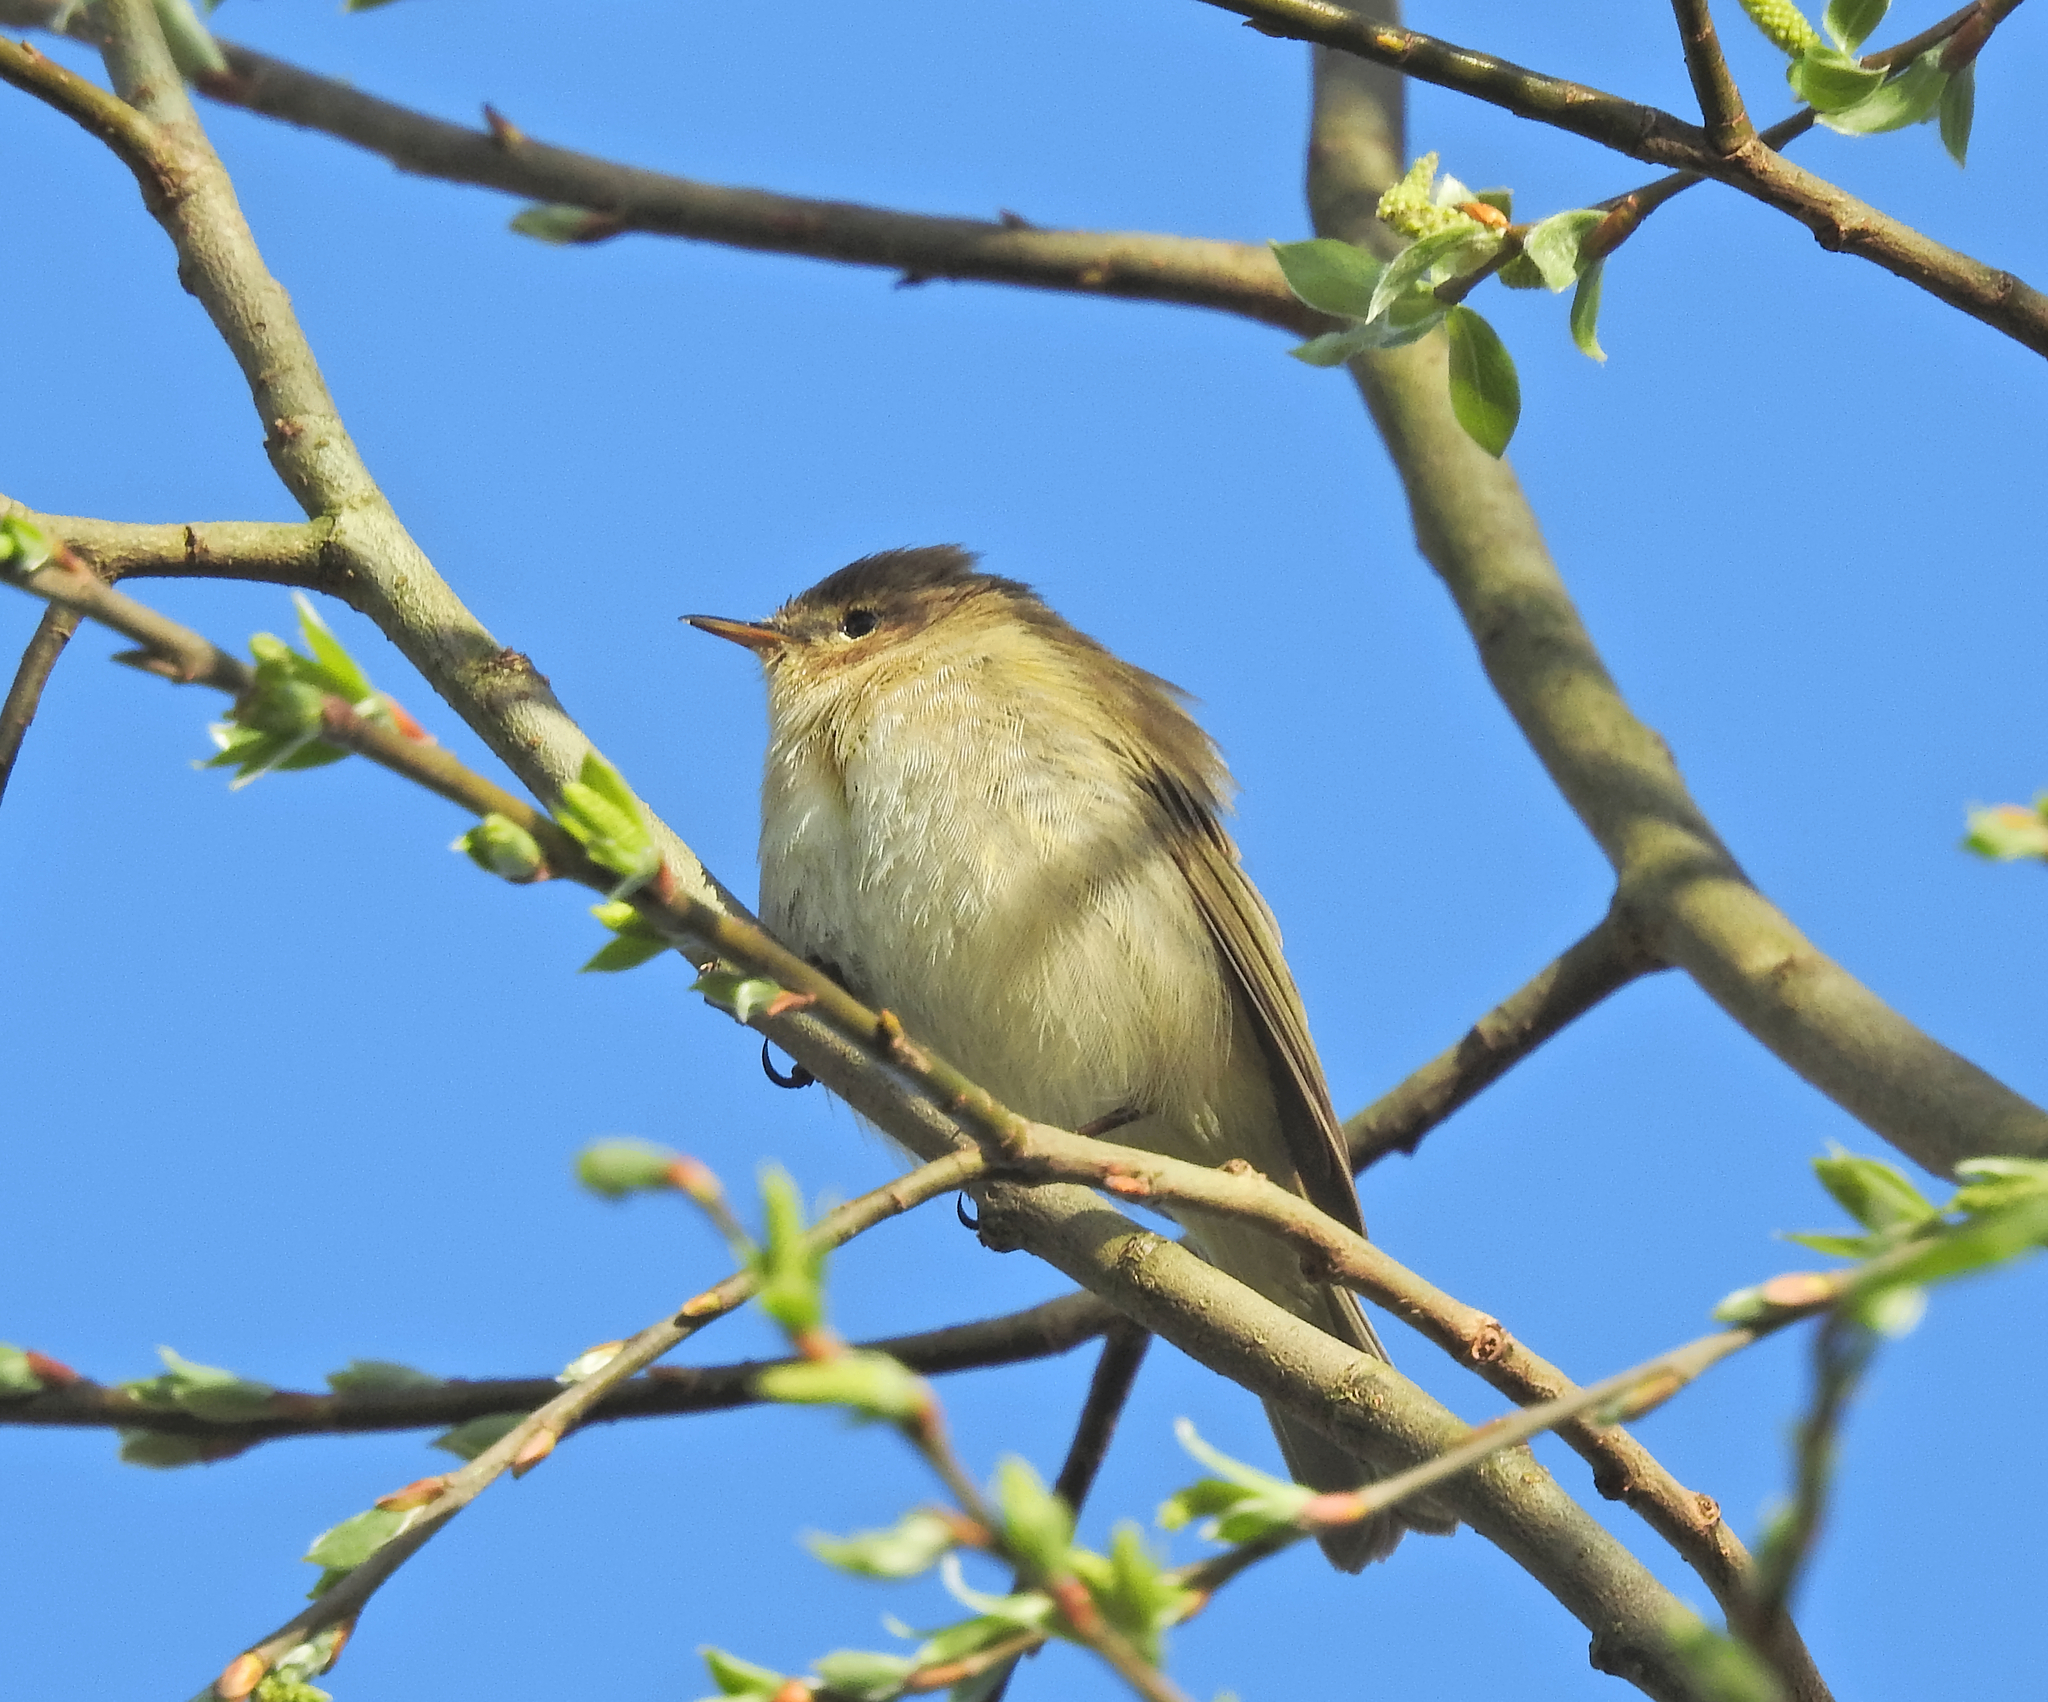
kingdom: Animalia
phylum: Chordata
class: Aves
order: Passeriformes
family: Phylloscopidae
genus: Phylloscopus
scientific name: Phylloscopus collybita
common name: Common chiffchaff
